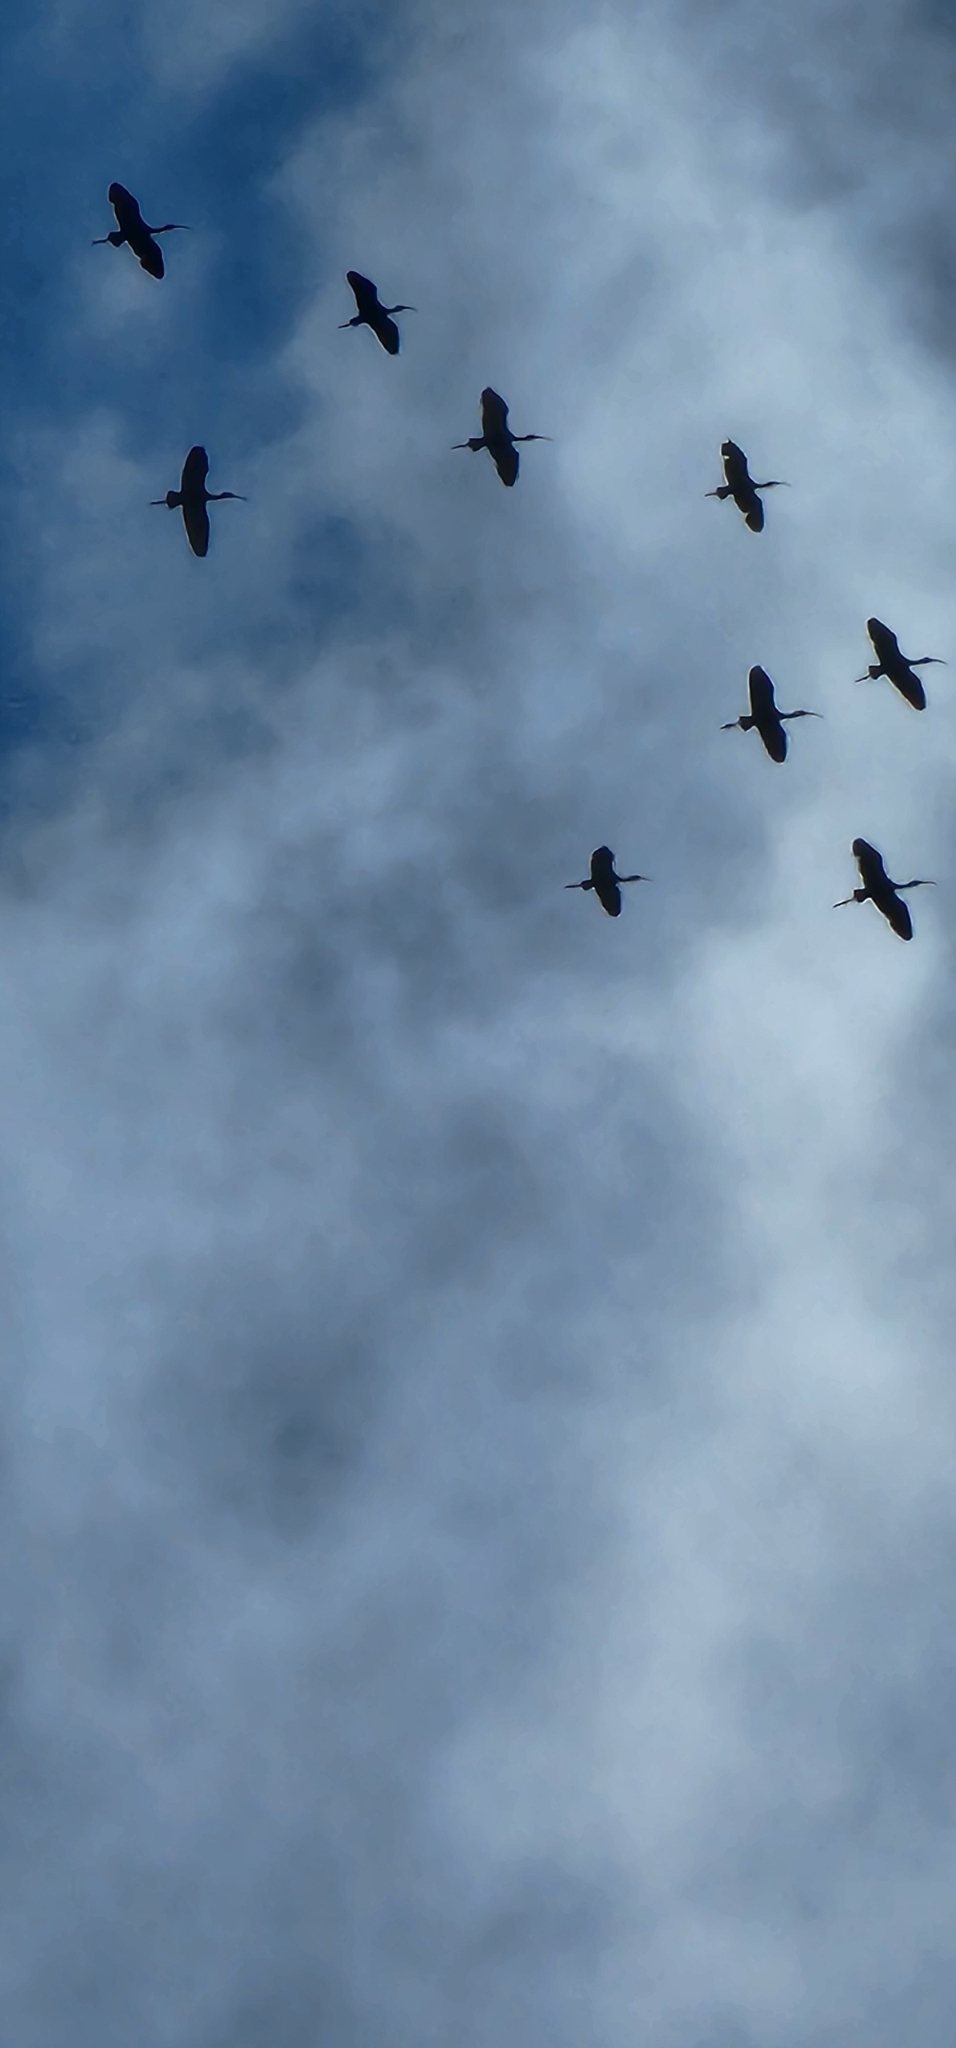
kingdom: Animalia
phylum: Chordata
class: Aves
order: Pelecaniformes
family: Threskiornithidae
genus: Plegadis
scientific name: Plegadis chihi
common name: White-faced ibis
